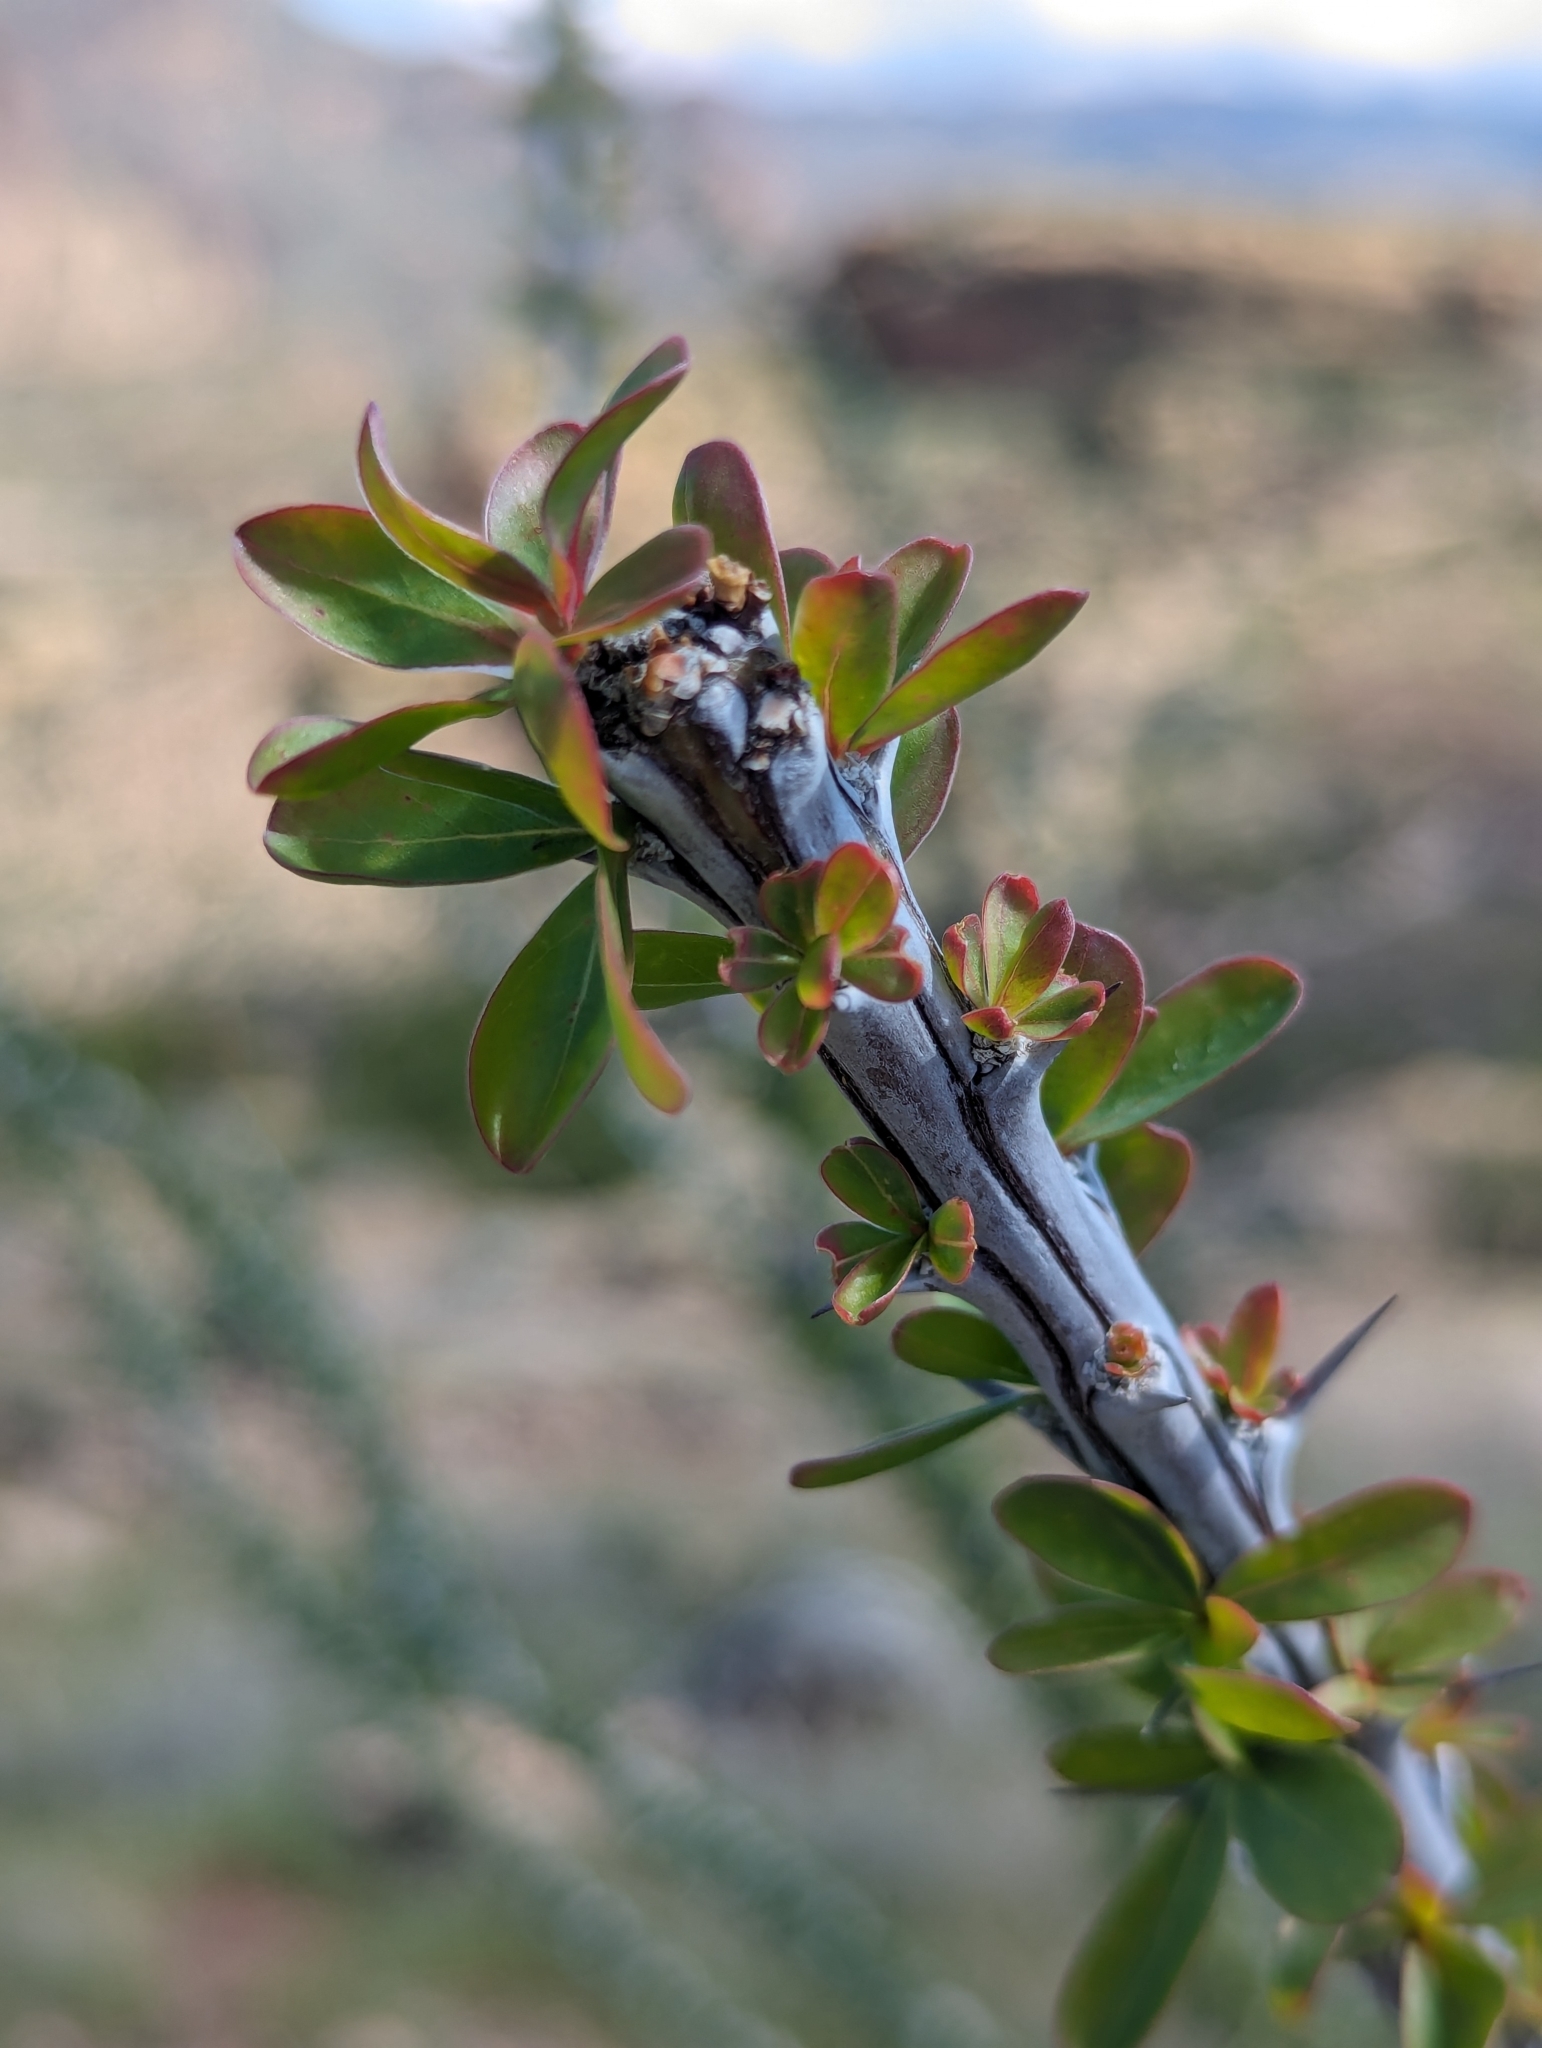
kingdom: Plantae
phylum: Tracheophyta
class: Magnoliopsida
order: Ericales
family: Fouquieriaceae
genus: Fouquieria
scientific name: Fouquieria splendens
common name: Vine-cactus
